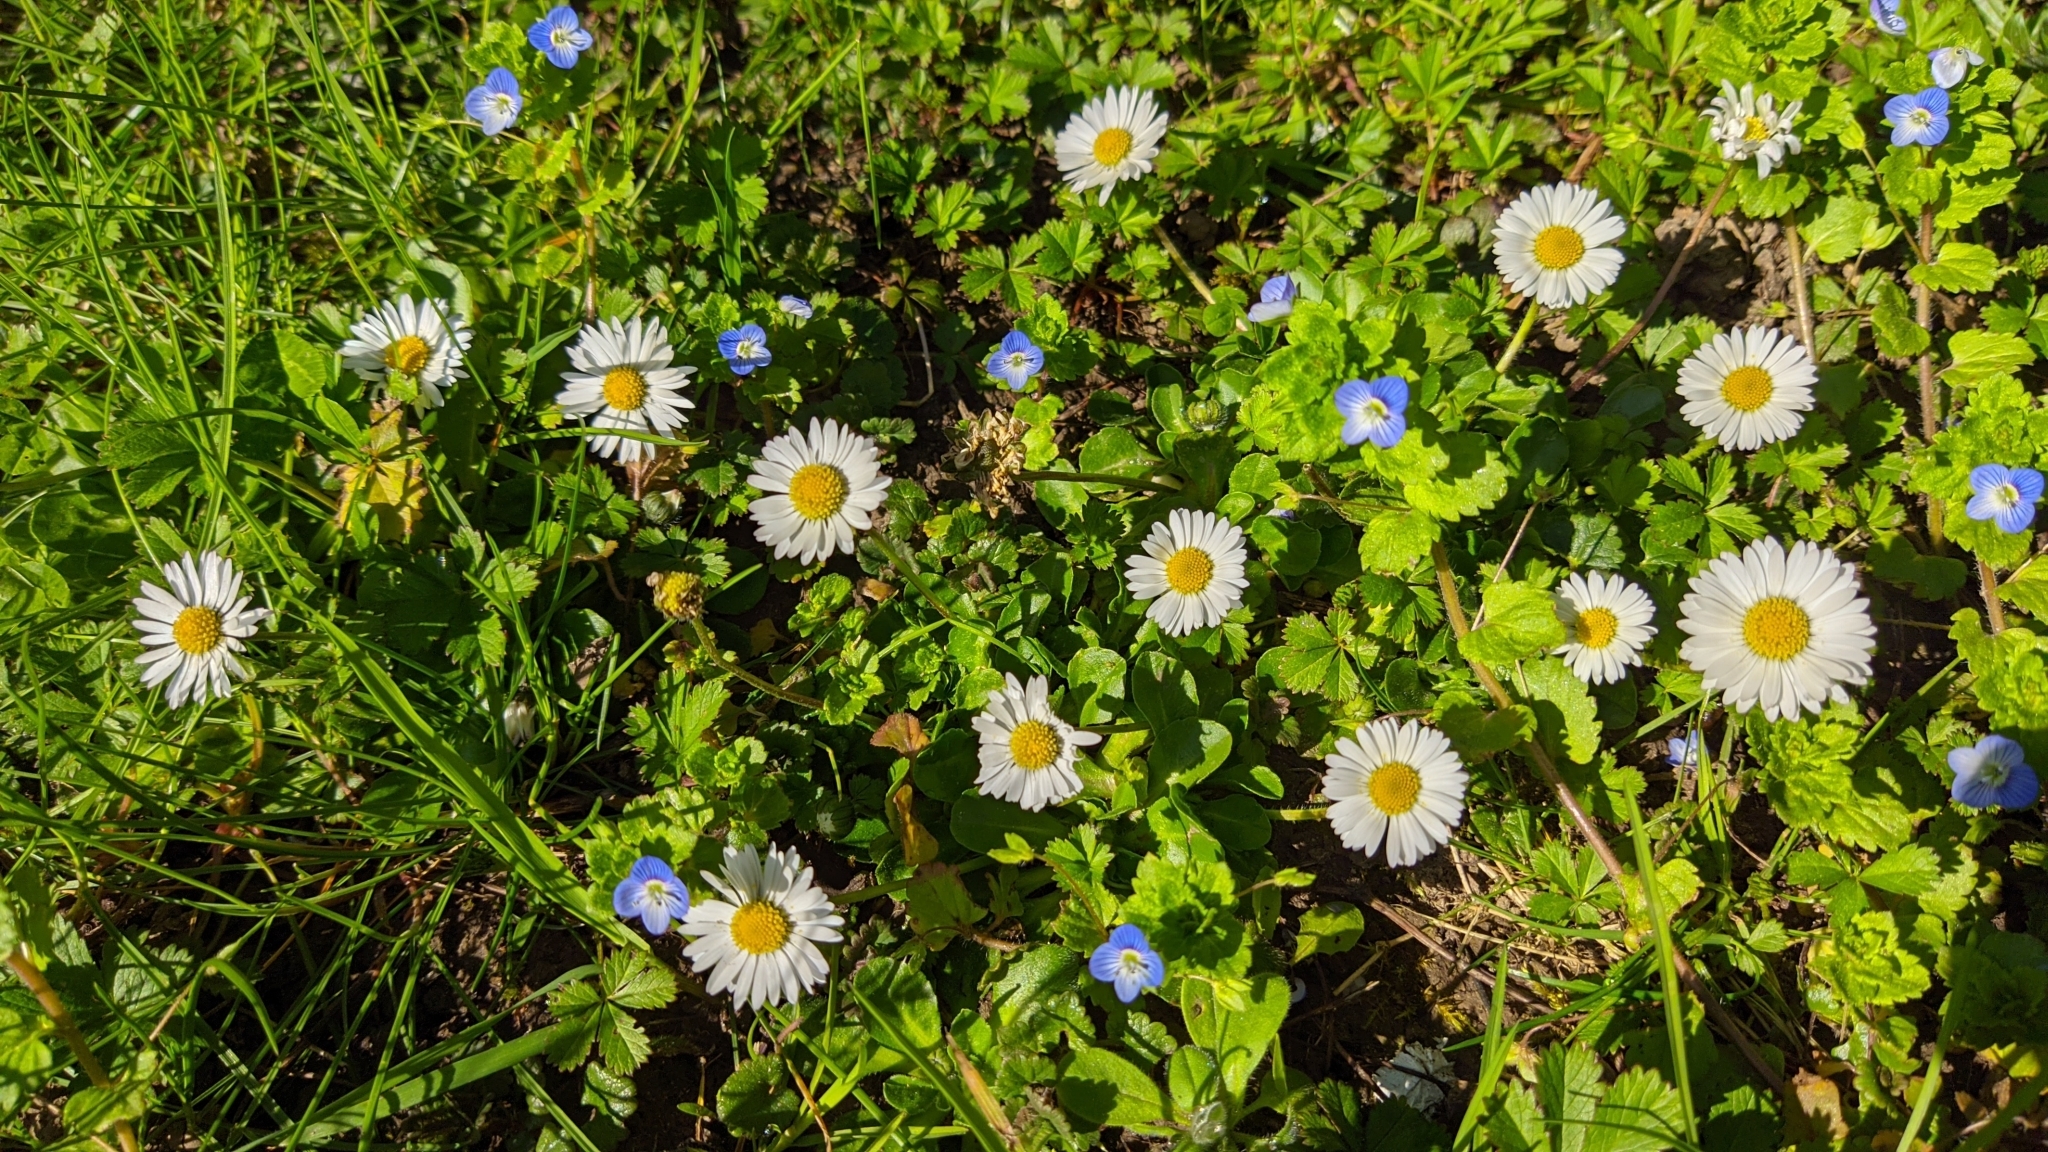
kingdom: Plantae
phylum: Tracheophyta
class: Magnoliopsida
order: Asterales
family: Asteraceae
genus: Bellis
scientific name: Bellis perennis
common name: Lawndaisy
